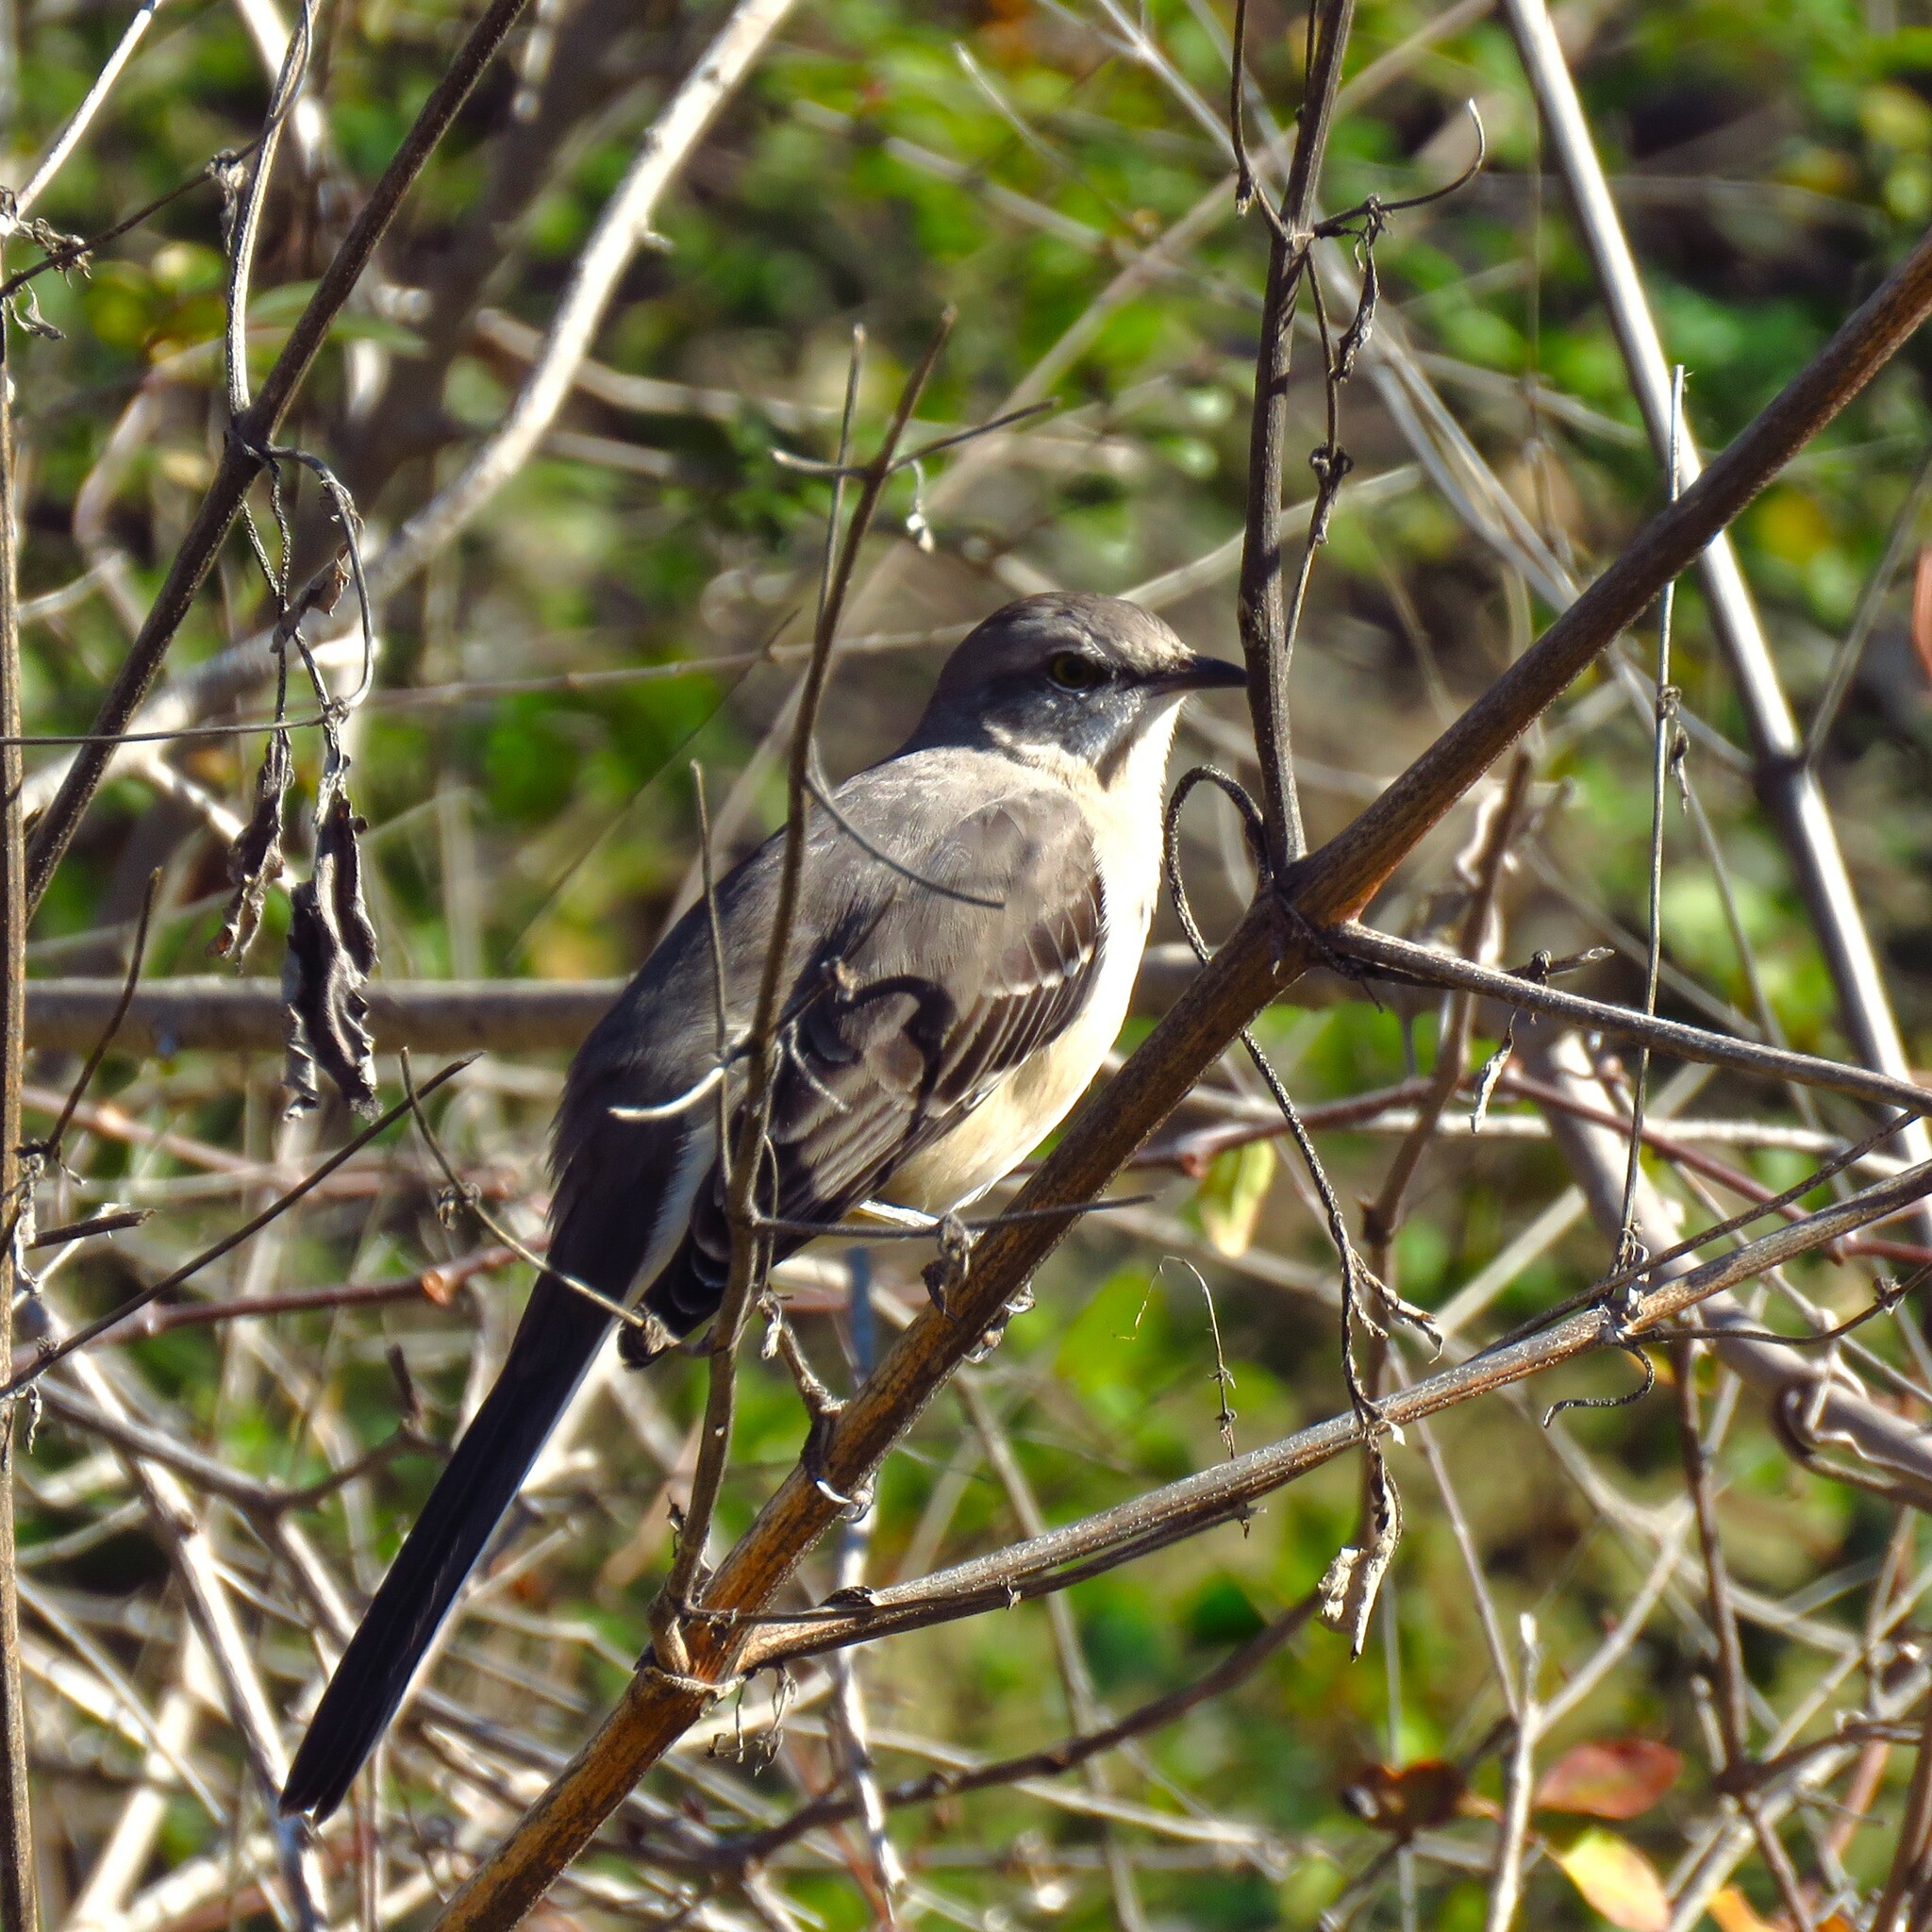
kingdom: Animalia
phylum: Chordata
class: Aves
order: Passeriformes
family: Mimidae
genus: Mimus
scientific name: Mimus polyglottos
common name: Northern mockingbird
